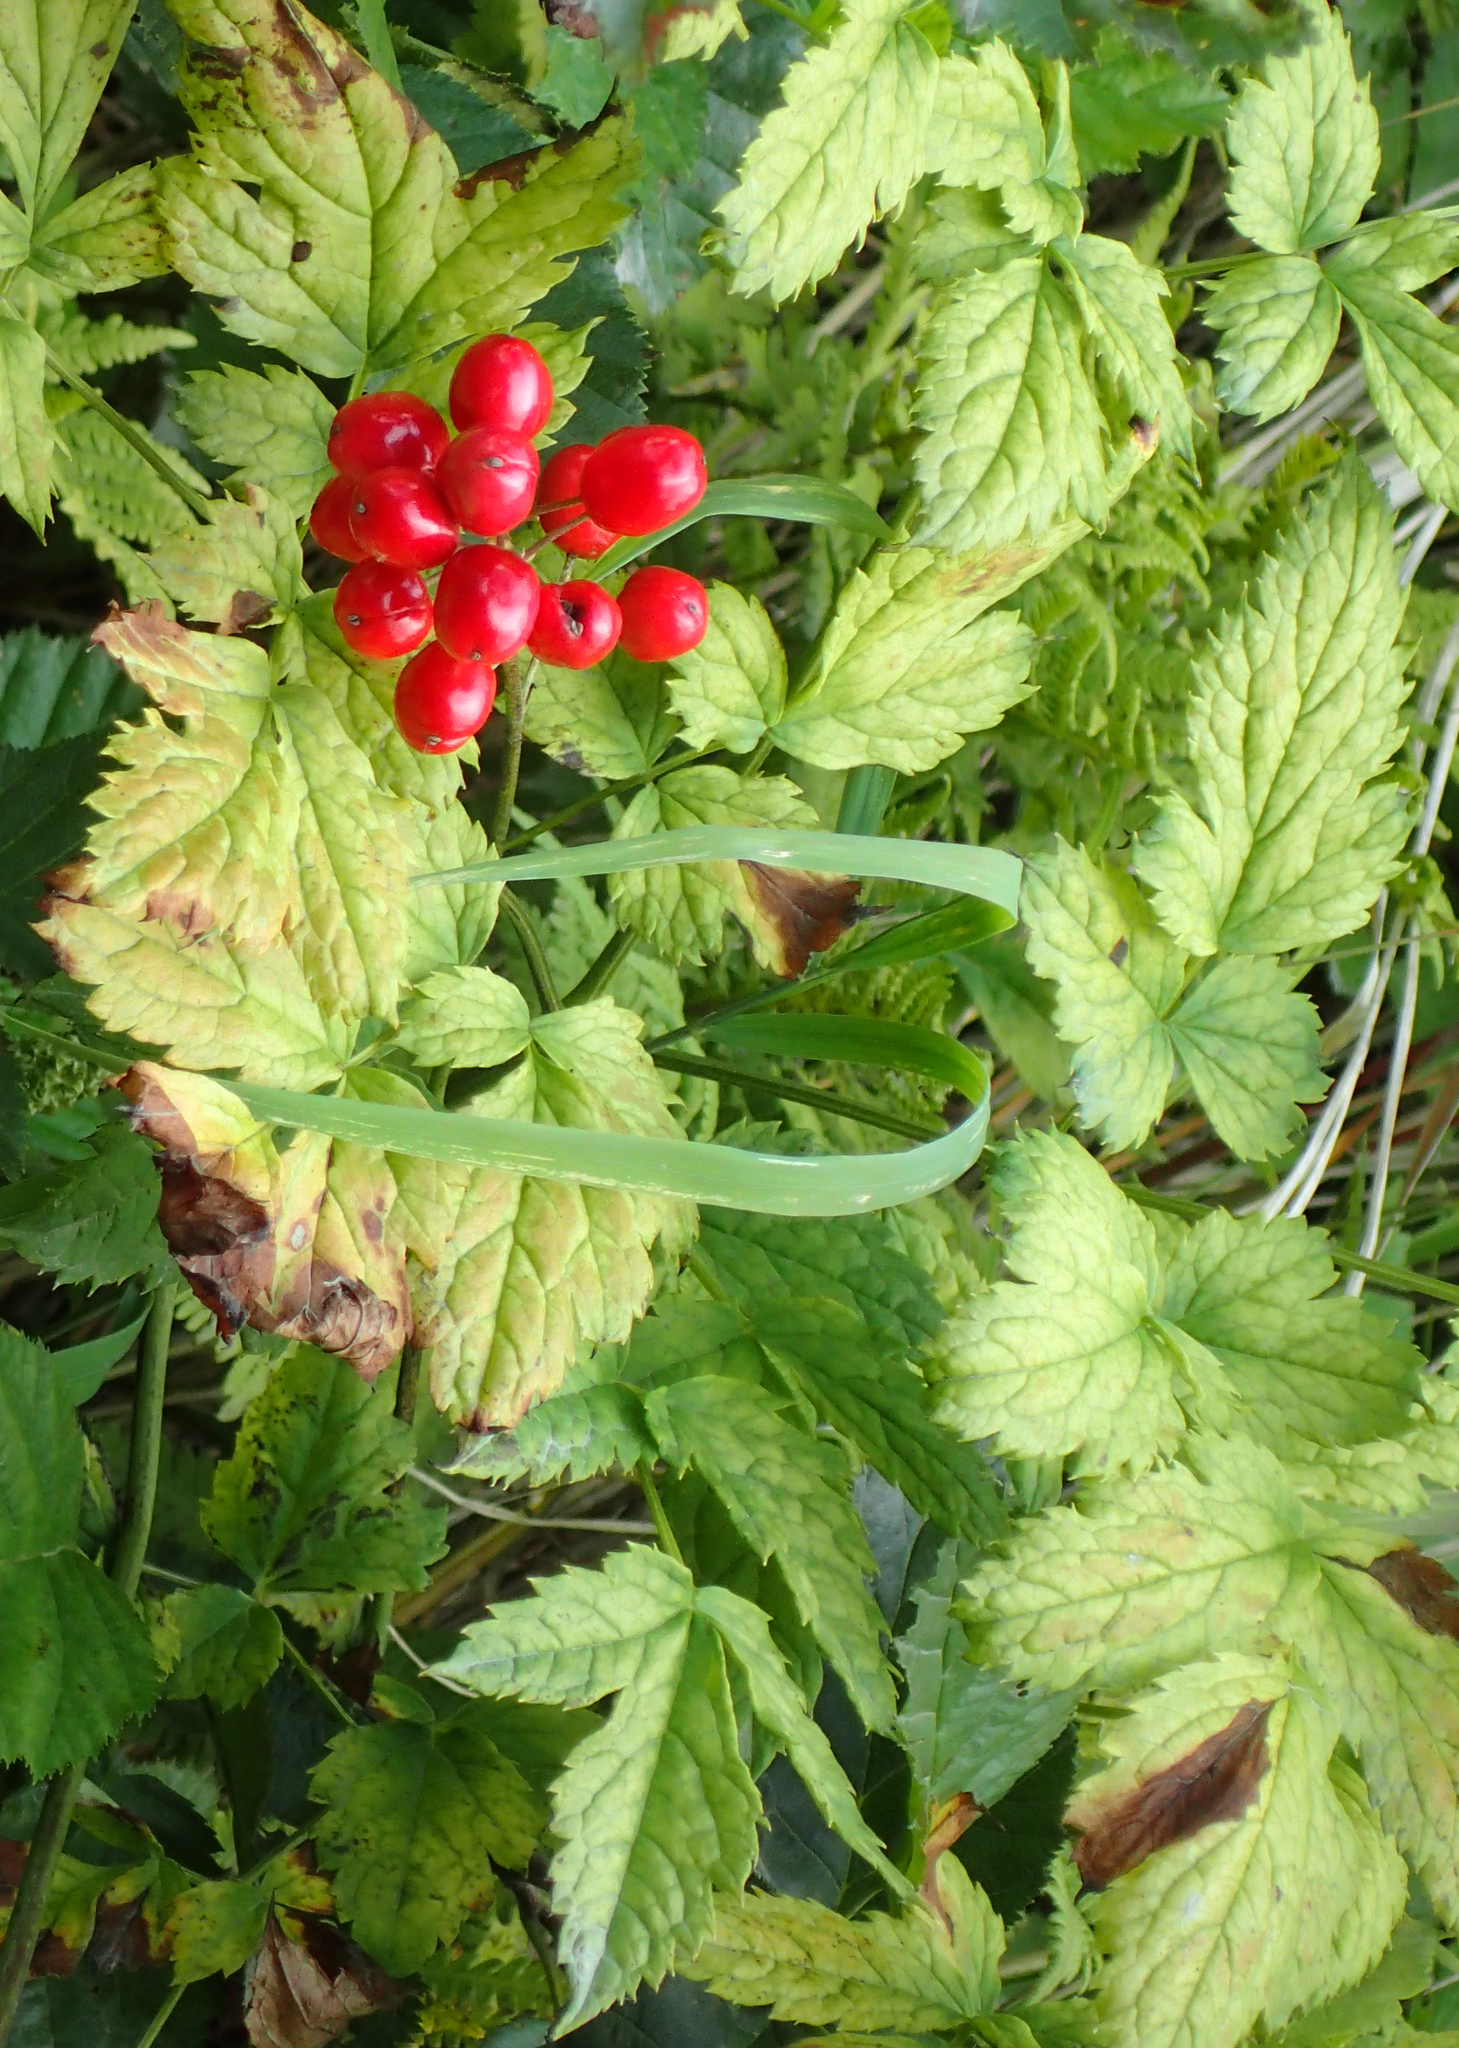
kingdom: Plantae
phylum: Tracheophyta
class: Magnoliopsida
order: Ranunculales
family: Ranunculaceae
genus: Actaea
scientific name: Actaea rubra
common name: Red baneberry
